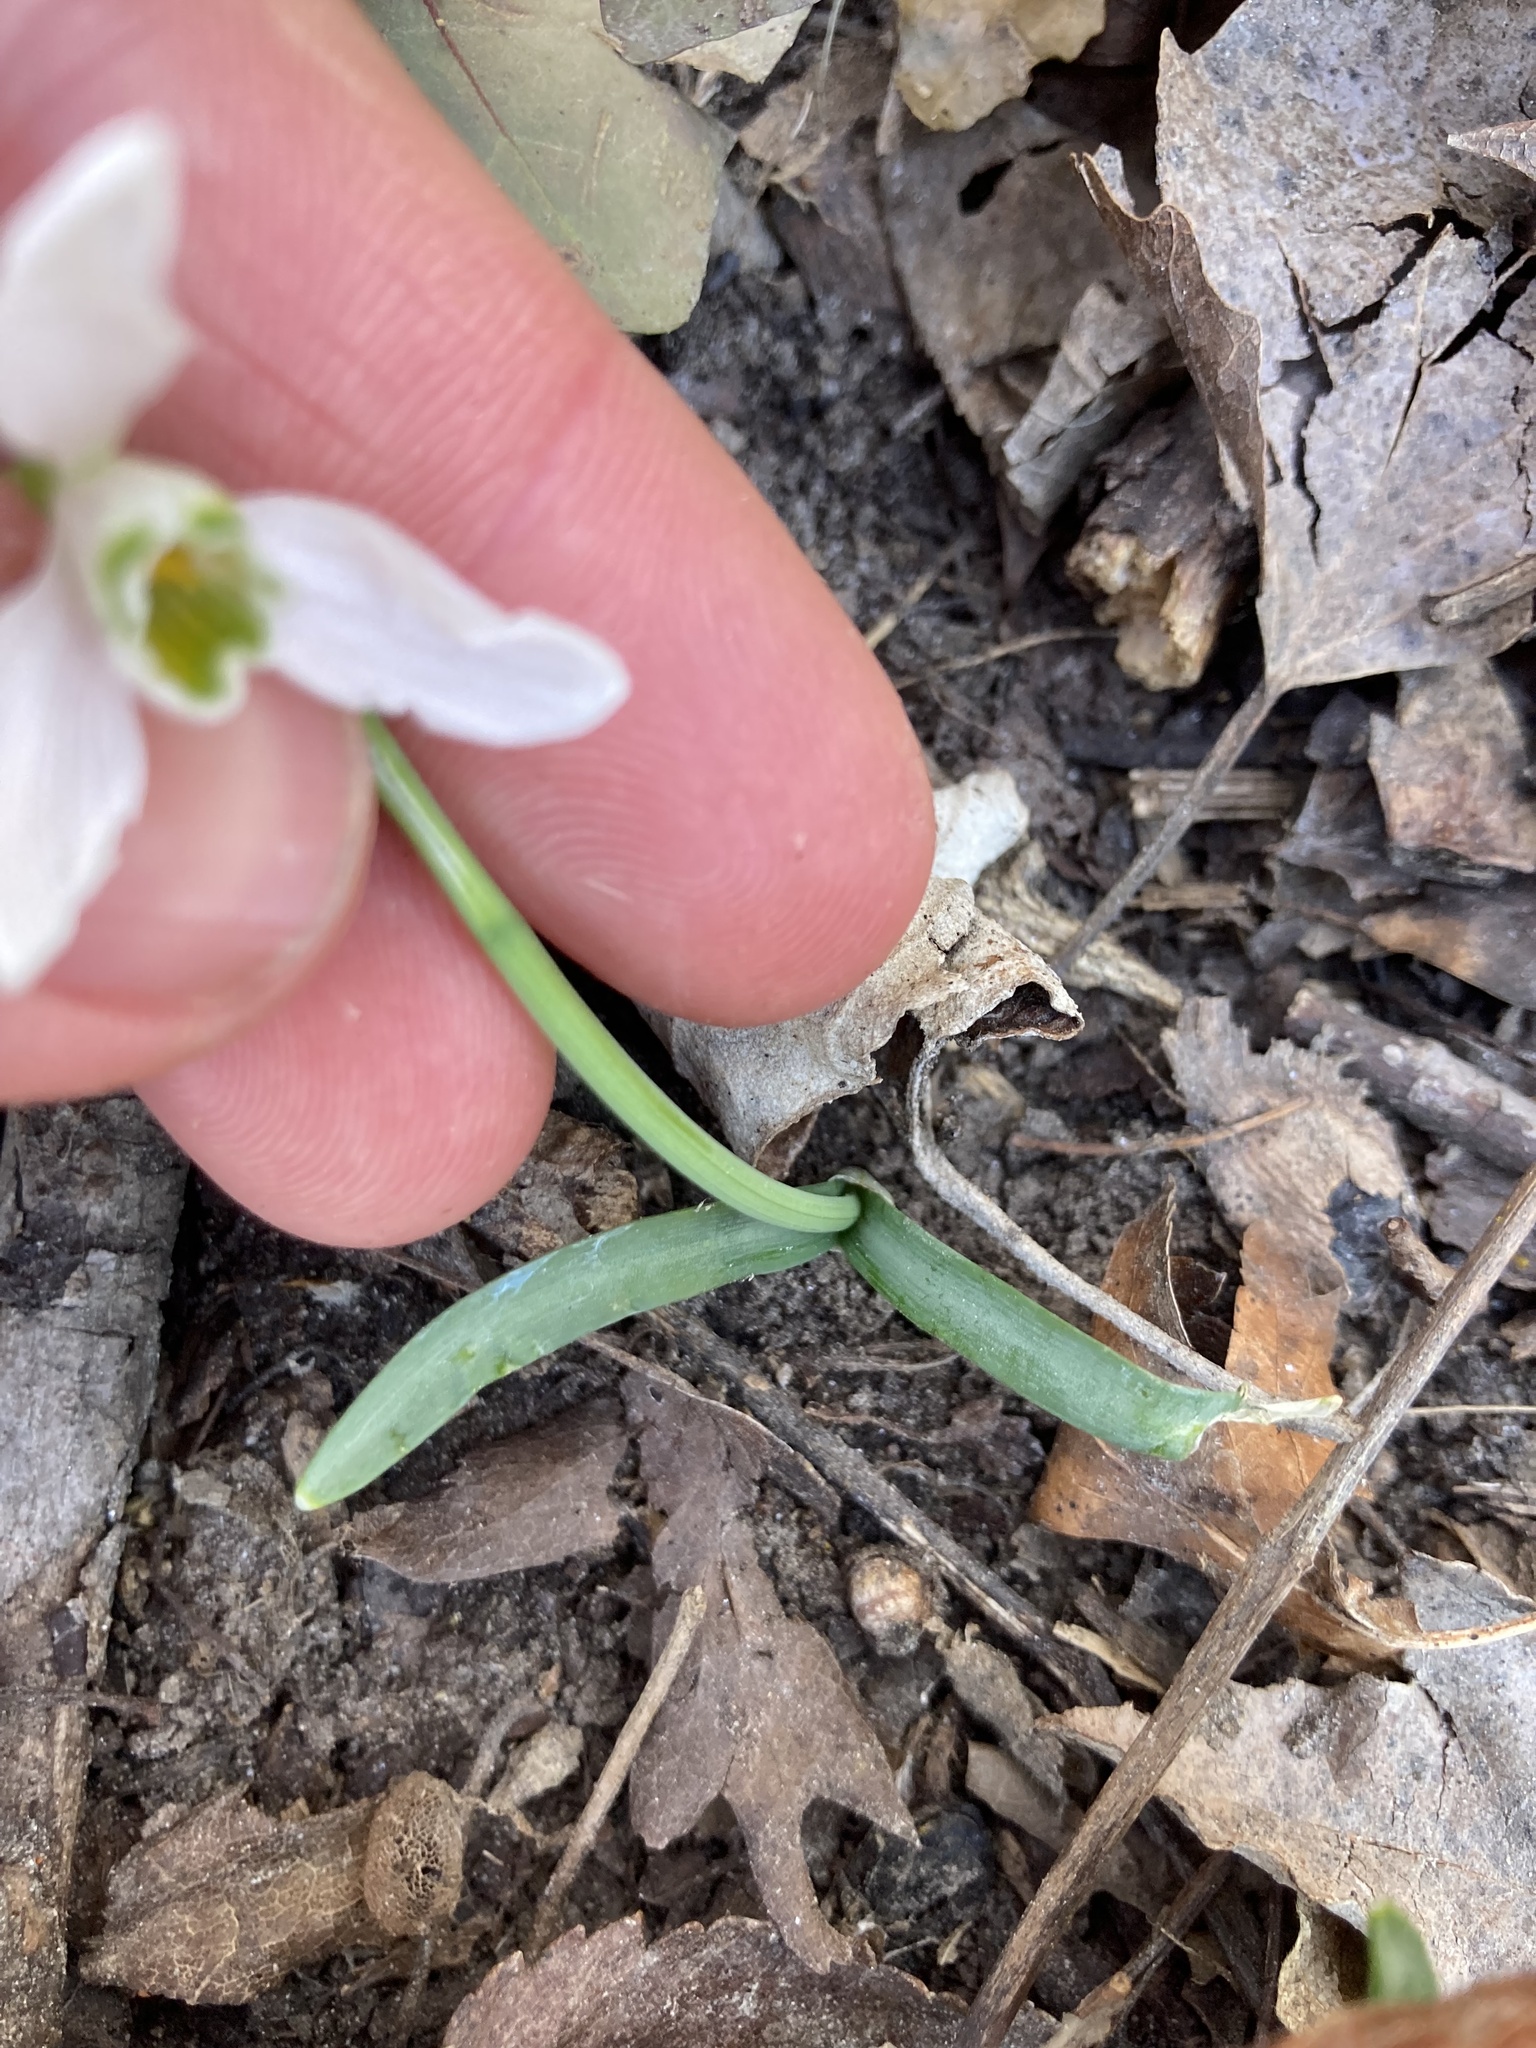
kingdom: Plantae
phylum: Tracheophyta
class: Liliopsida
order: Asparagales
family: Amaryllidaceae
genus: Galanthus
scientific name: Galanthus nivalis
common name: Snowdrop
